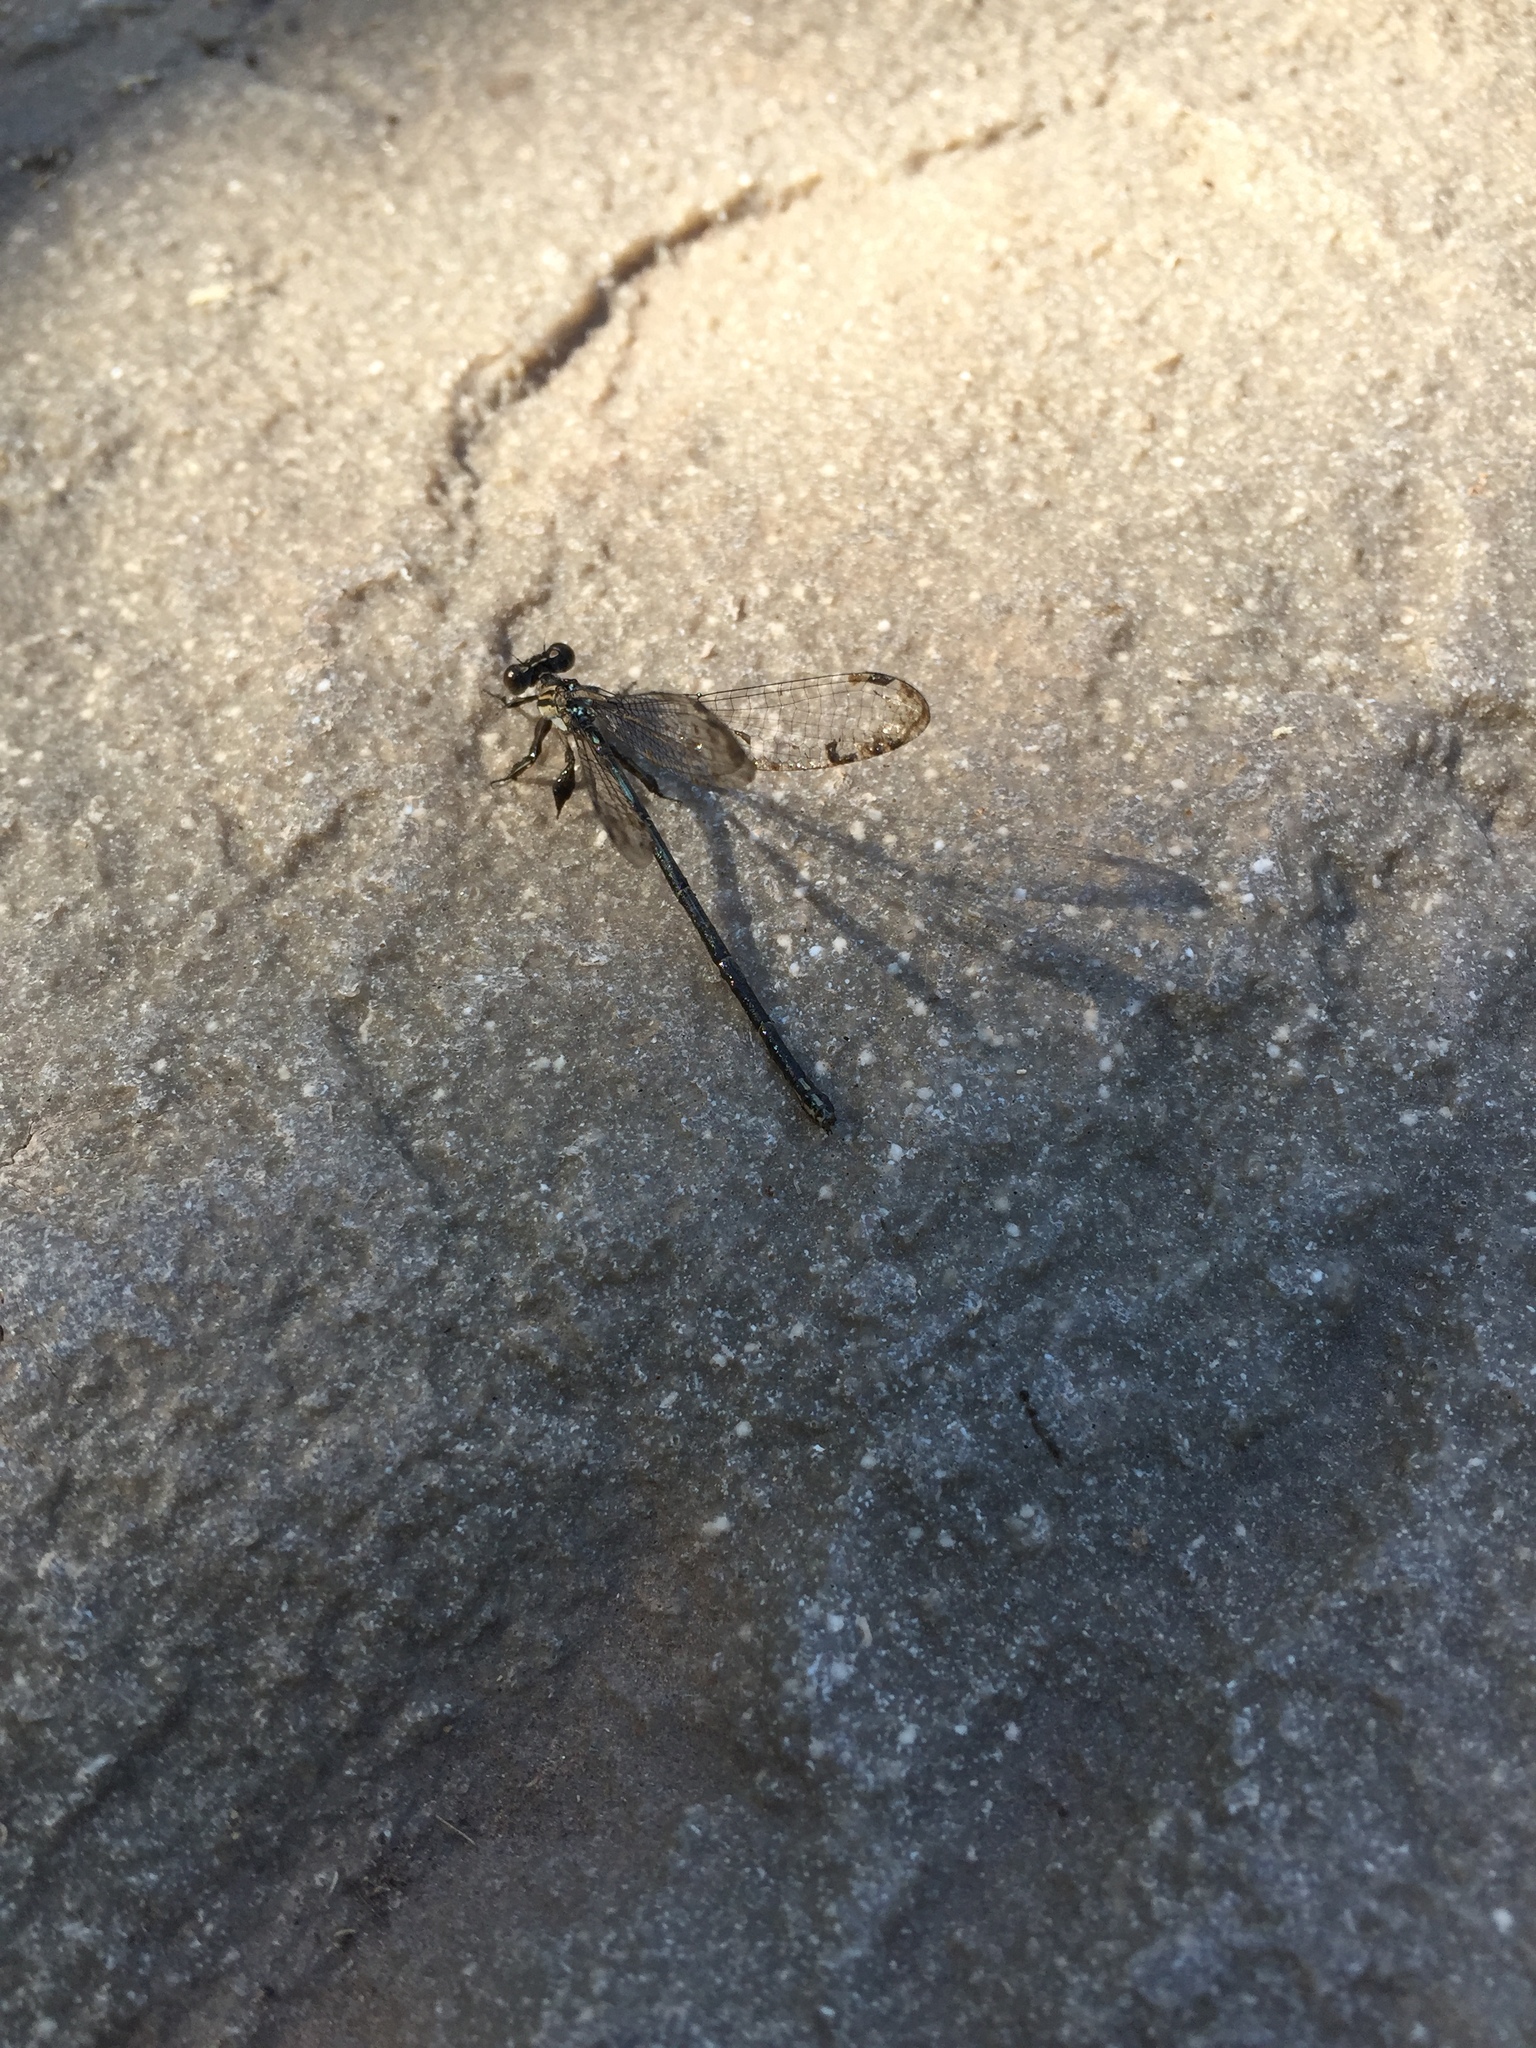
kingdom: Animalia
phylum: Arthropoda
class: Insecta
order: Odonata
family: Coenagrionidae
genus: Argia
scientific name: Argia translata
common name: Dusky dancer
